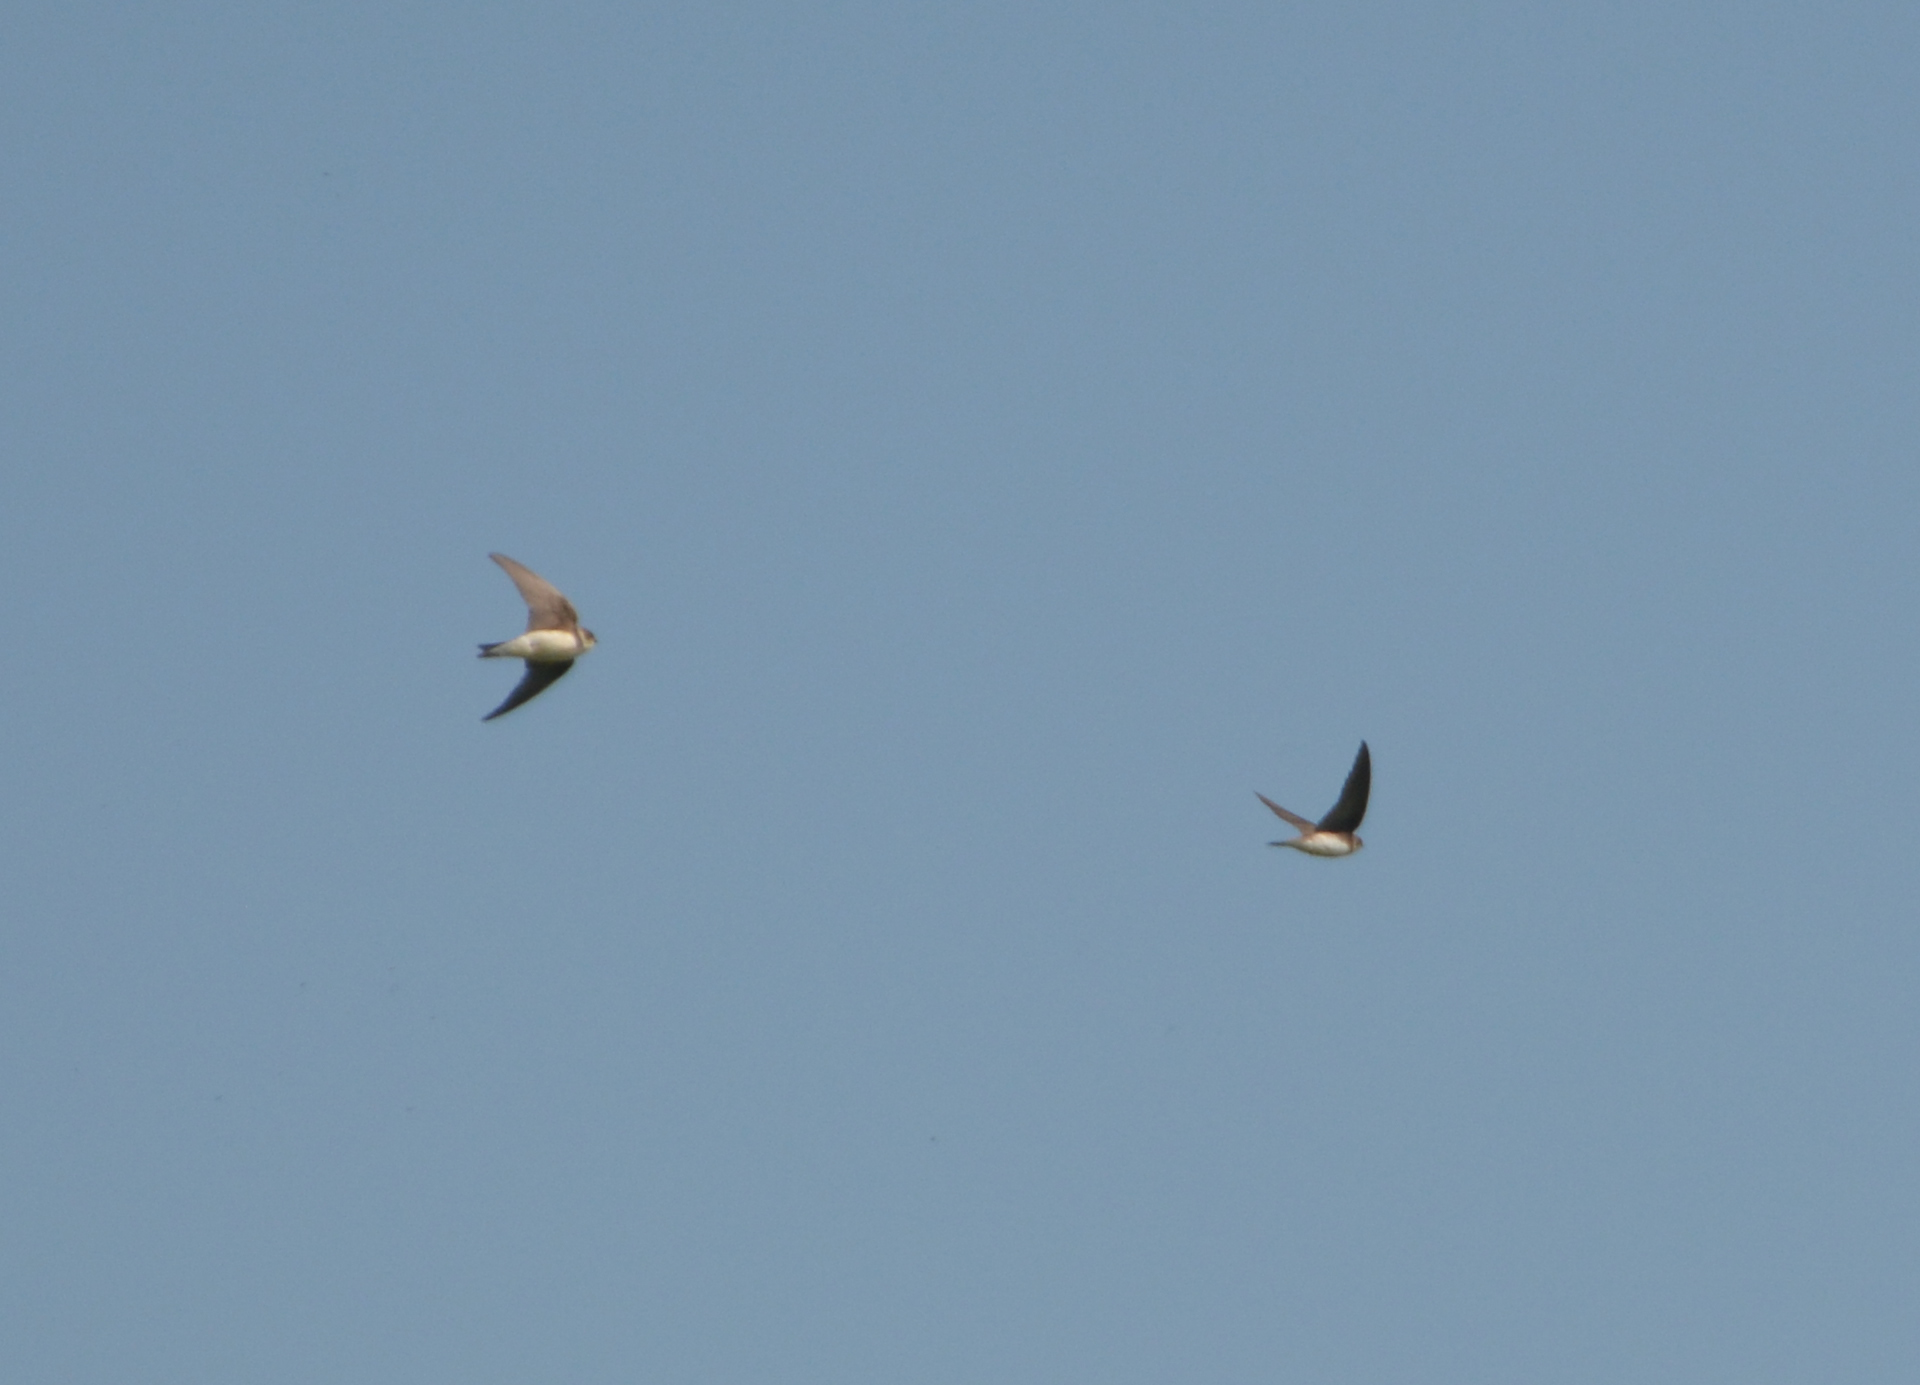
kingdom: Animalia
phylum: Chordata
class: Aves
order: Passeriformes
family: Hirundinidae
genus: Riparia
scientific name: Riparia riparia
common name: Sand martin
